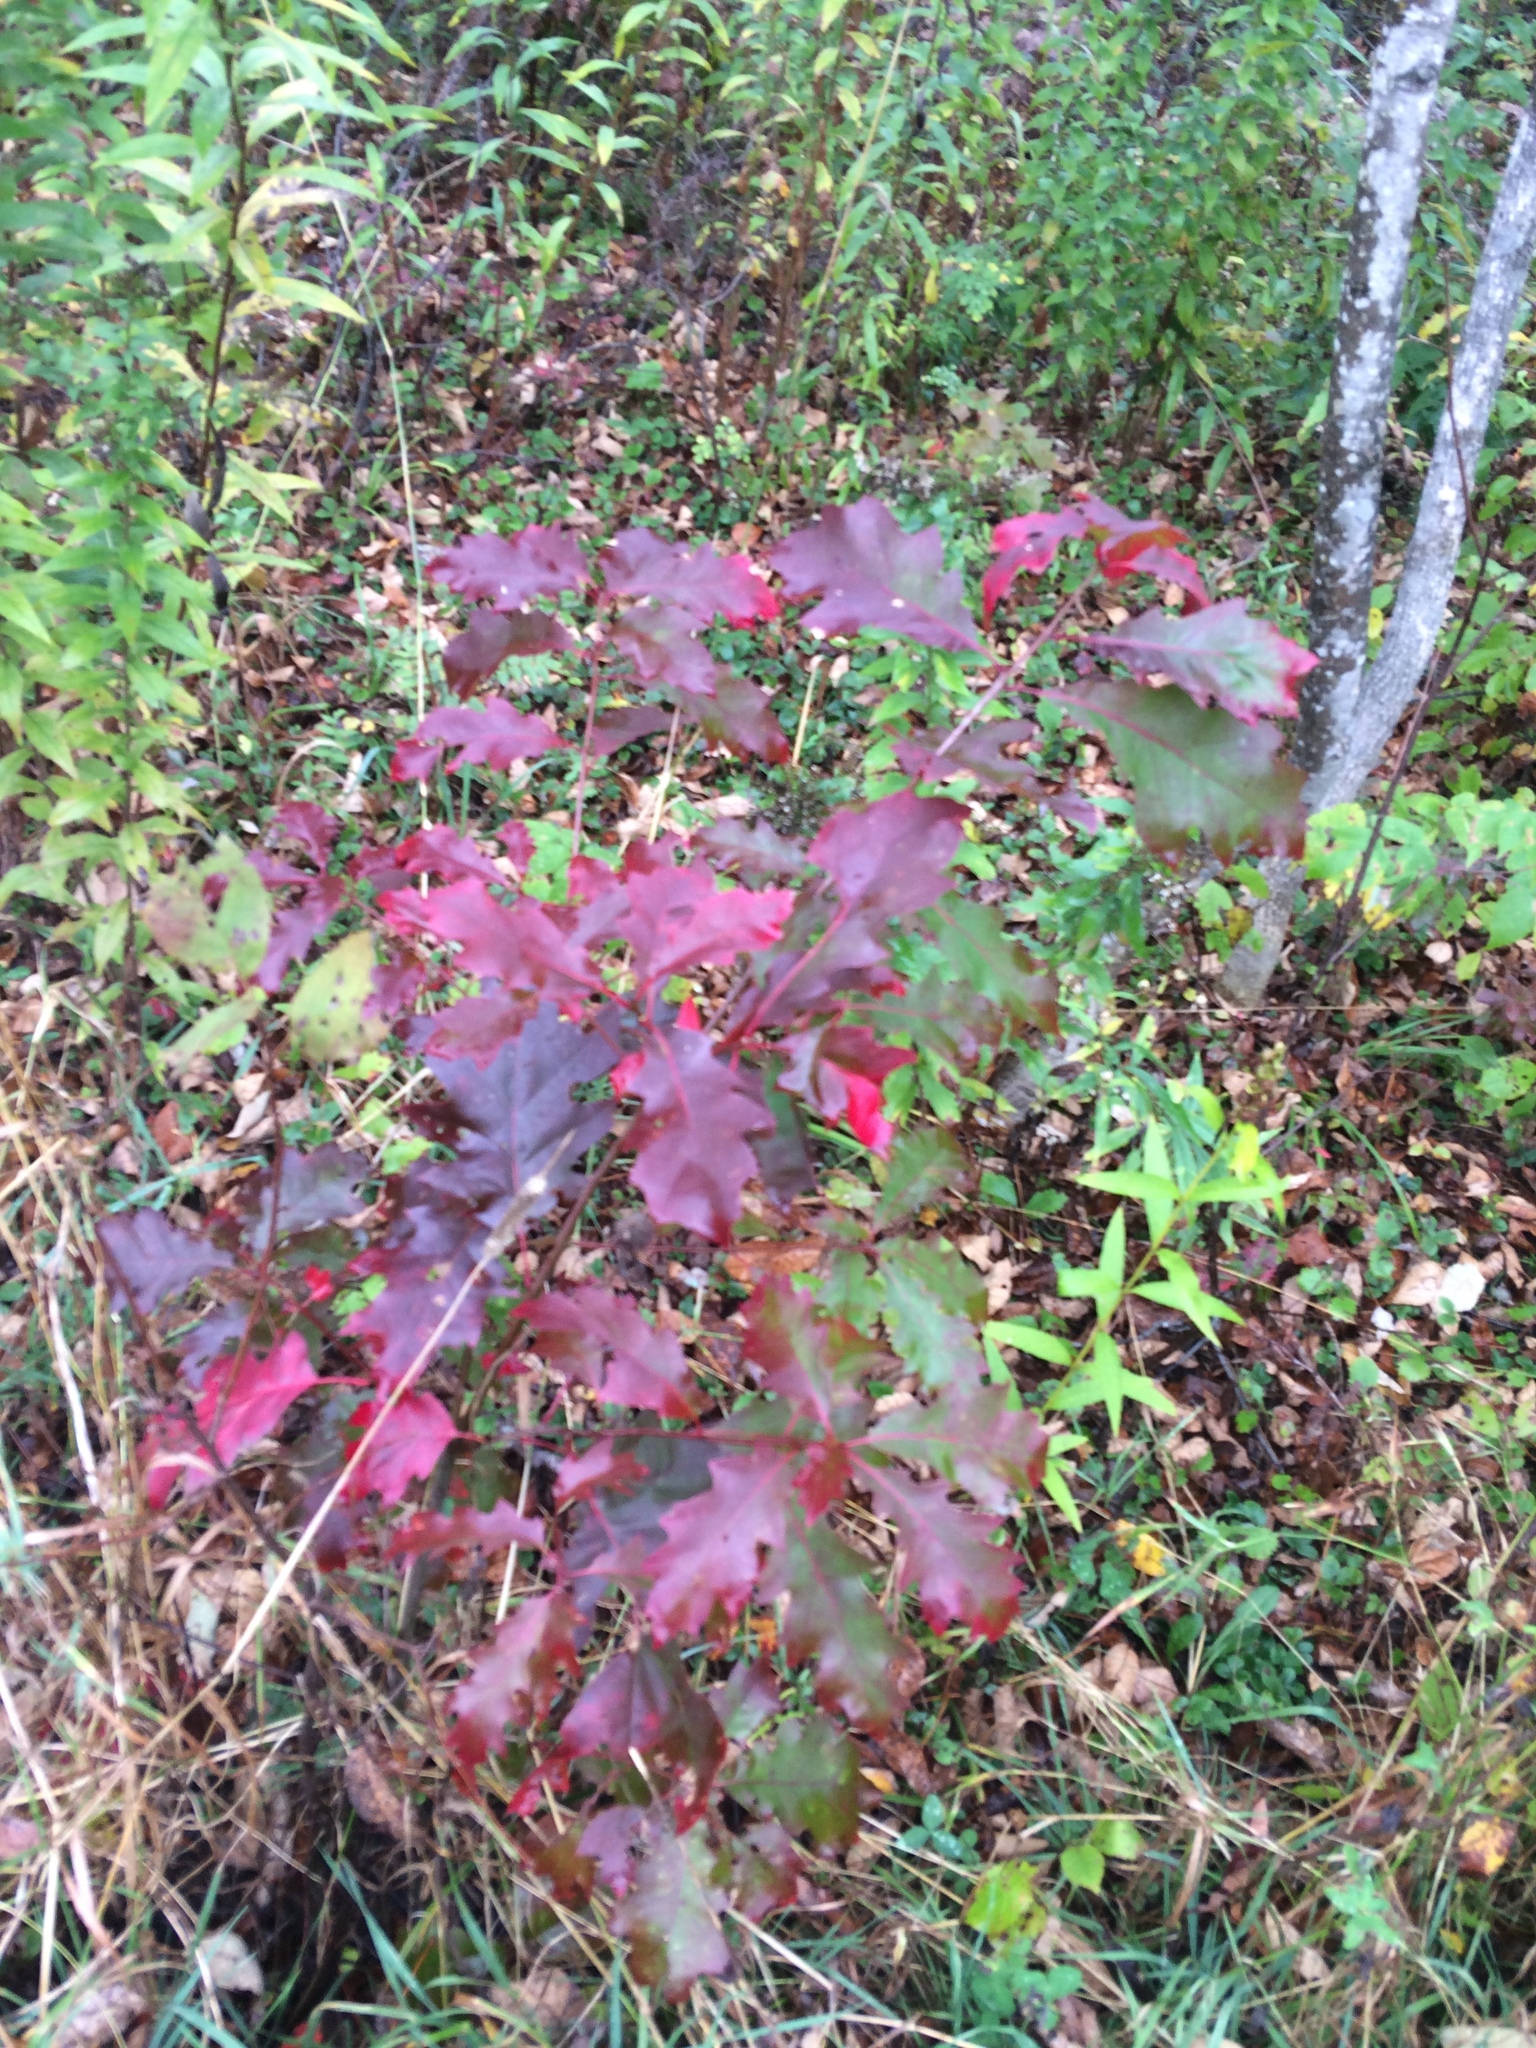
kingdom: Plantae
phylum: Tracheophyta
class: Magnoliopsida
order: Fagales
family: Fagaceae
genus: Quercus
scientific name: Quercus rubra
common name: Red oak
